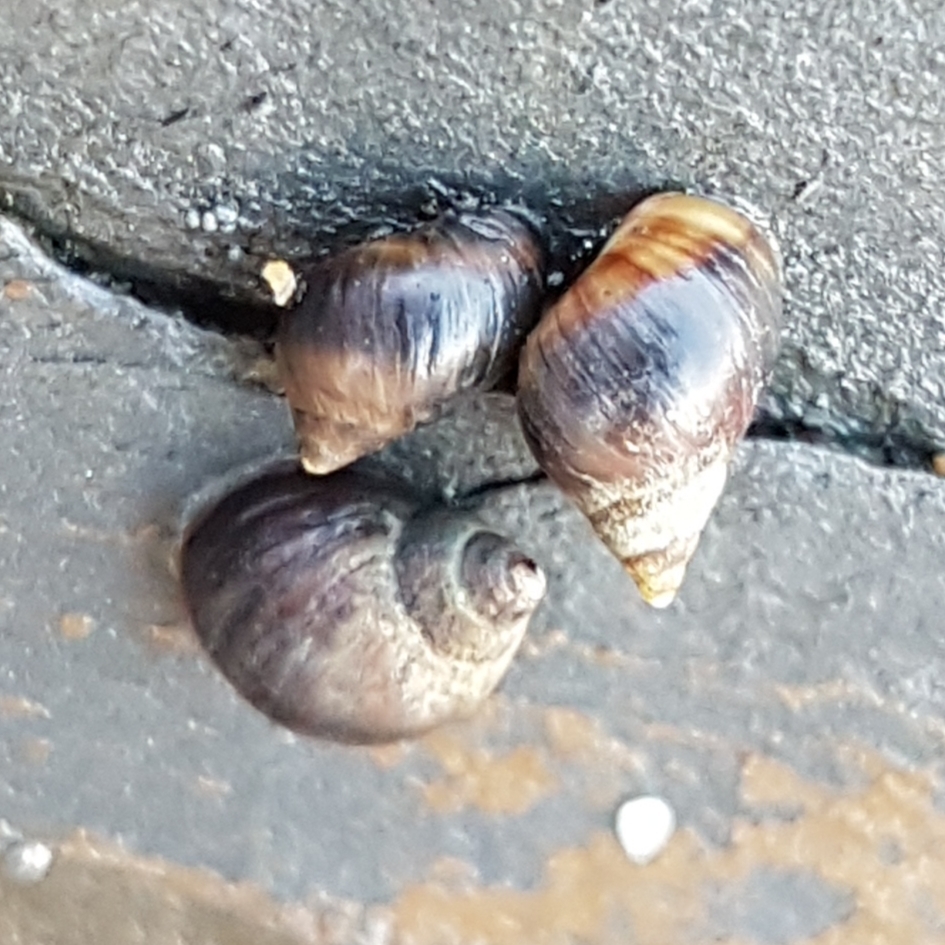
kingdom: Animalia
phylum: Mollusca
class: Gastropoda
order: Littorinimorpha
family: Littorinidae
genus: Melarhaphe
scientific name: Melarhaphe neritoides
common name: Small periwinkle
